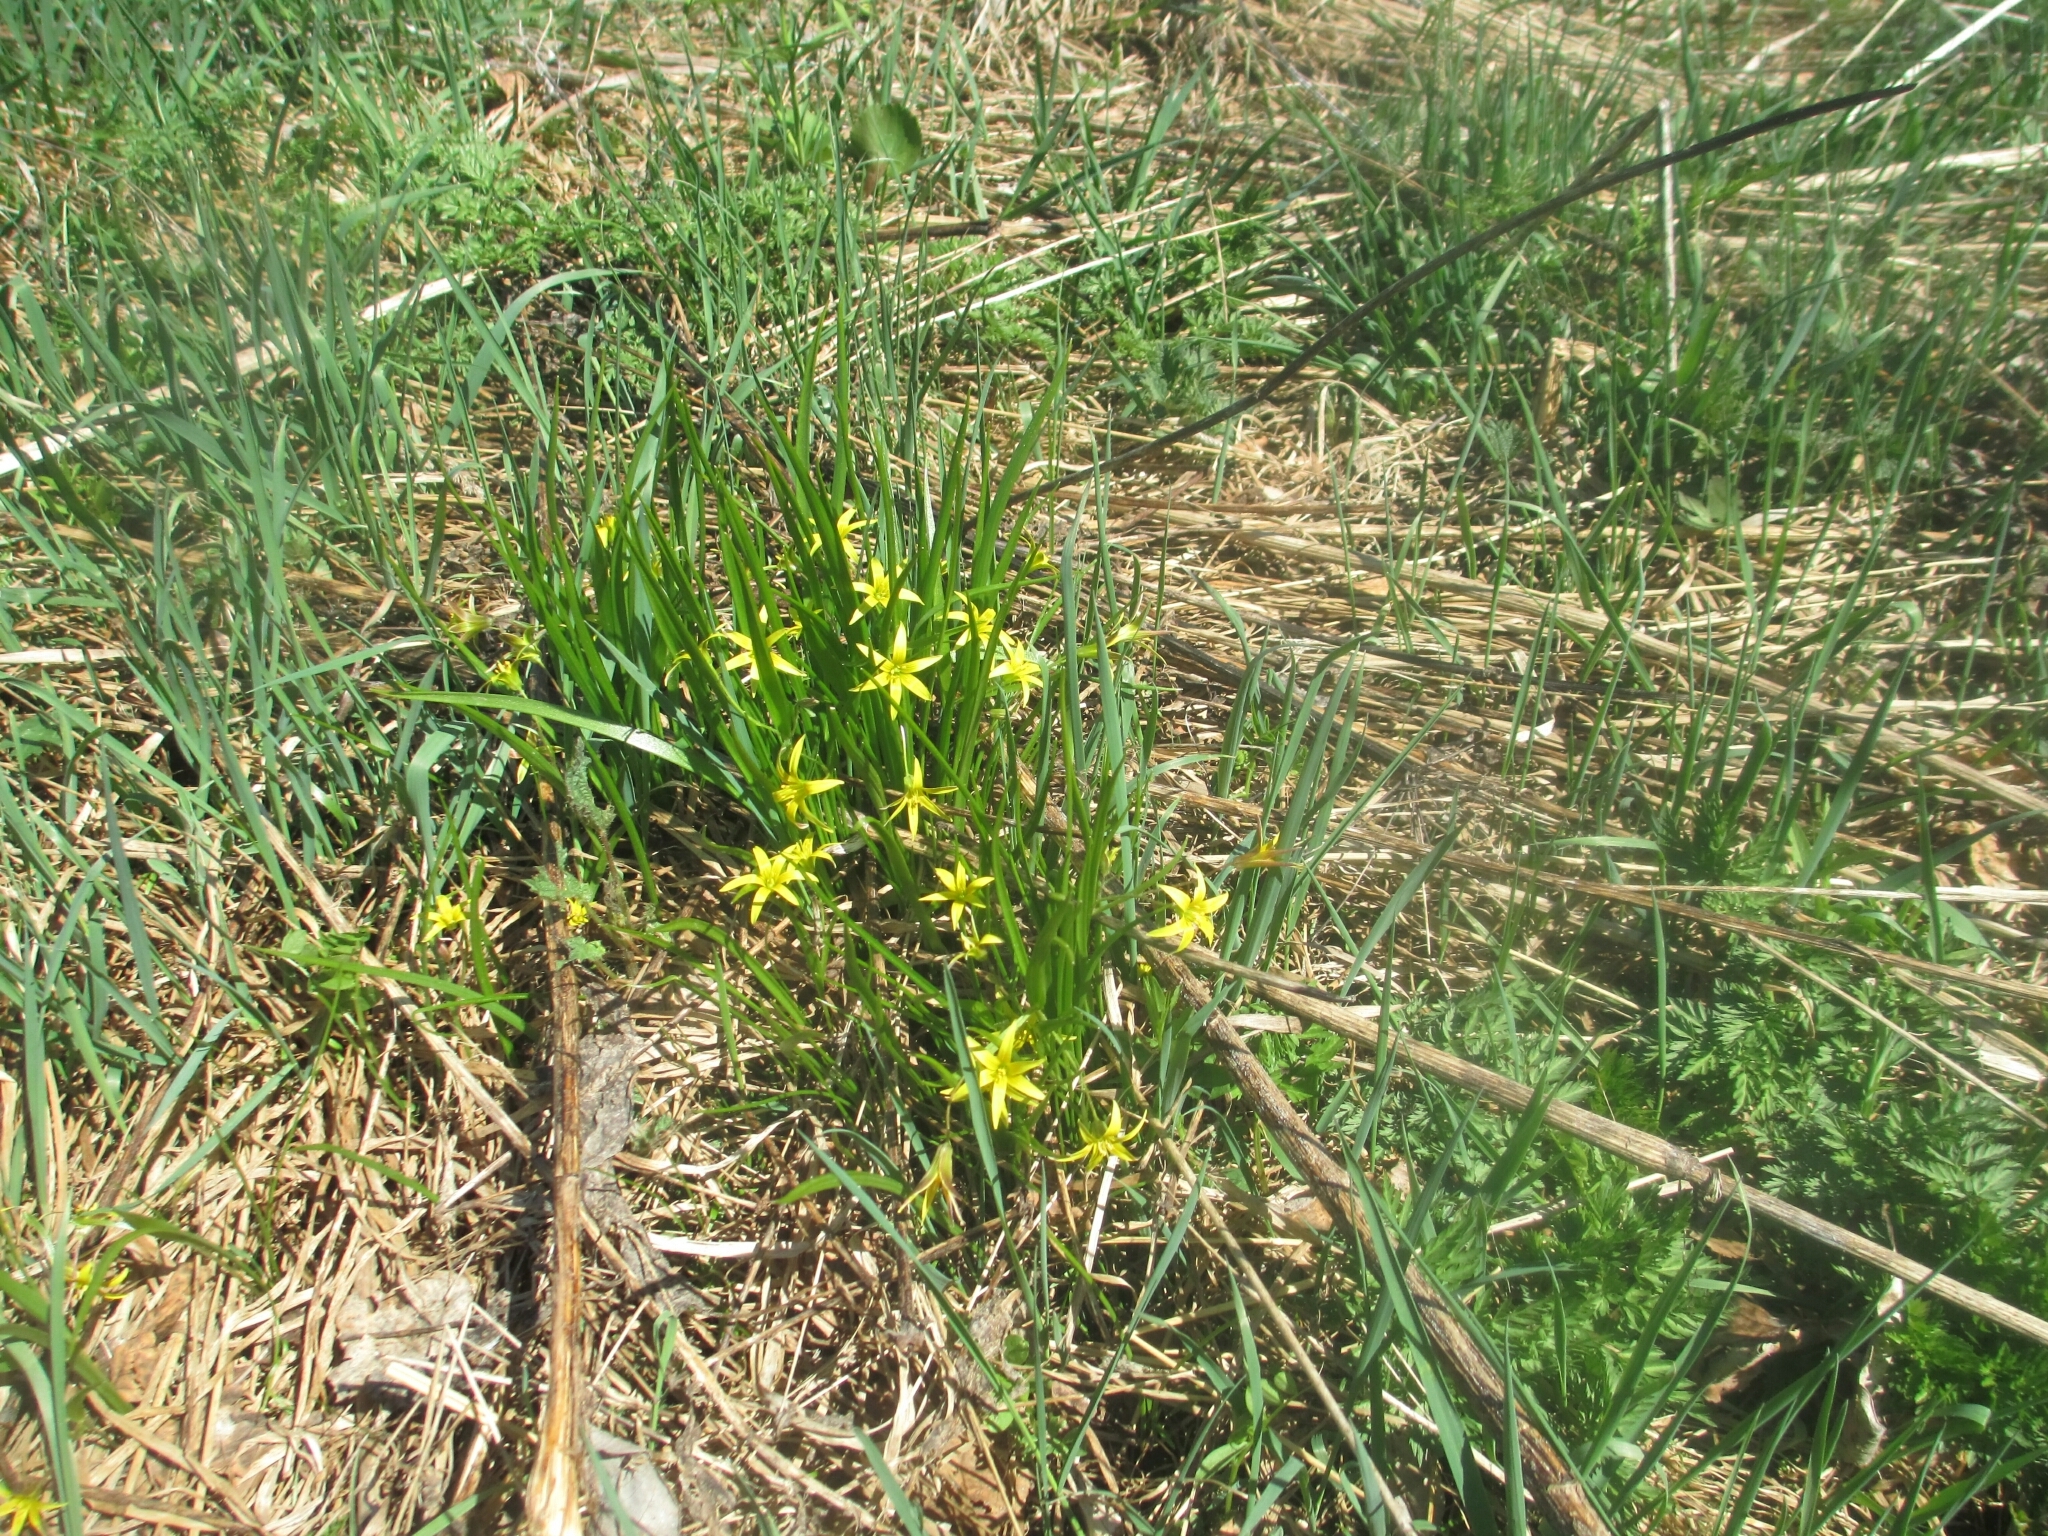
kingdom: Plantae
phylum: Tracheophyta
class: Liliopsida
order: Liliales
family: Liliaceae
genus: Gagea
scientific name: Gagea minima
